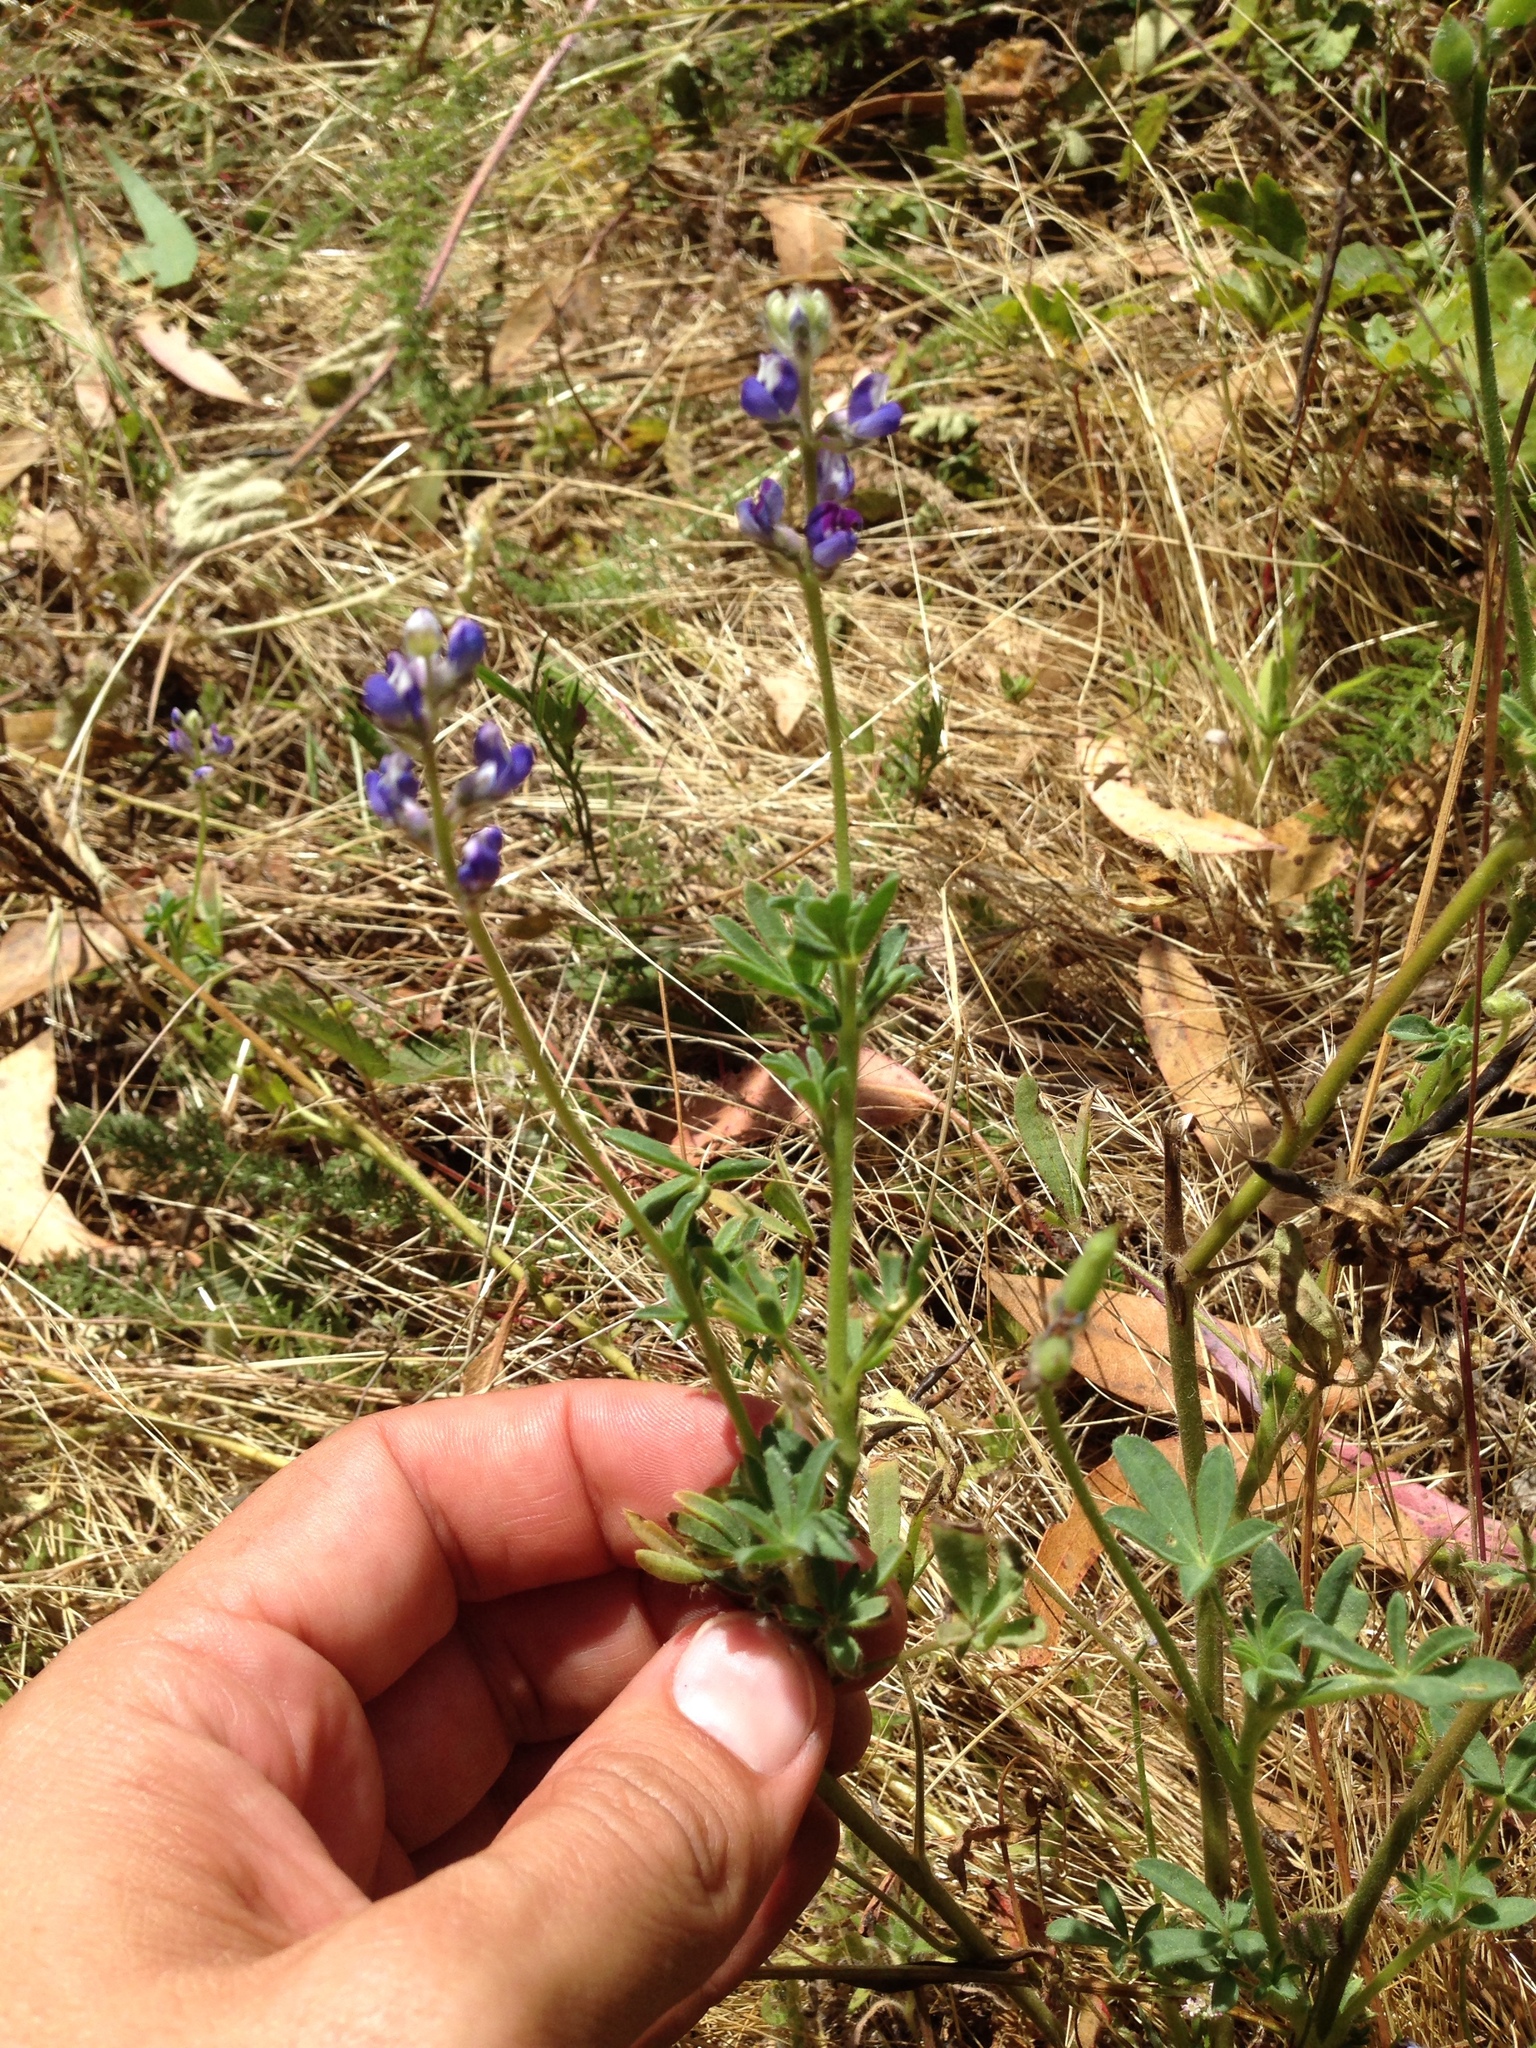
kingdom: Plantae
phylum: Tracheophyta
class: Magnoliopsida
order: Fabales
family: Fabaceae
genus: Lupinus
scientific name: Lupinus bicolor
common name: Miniature lupine
